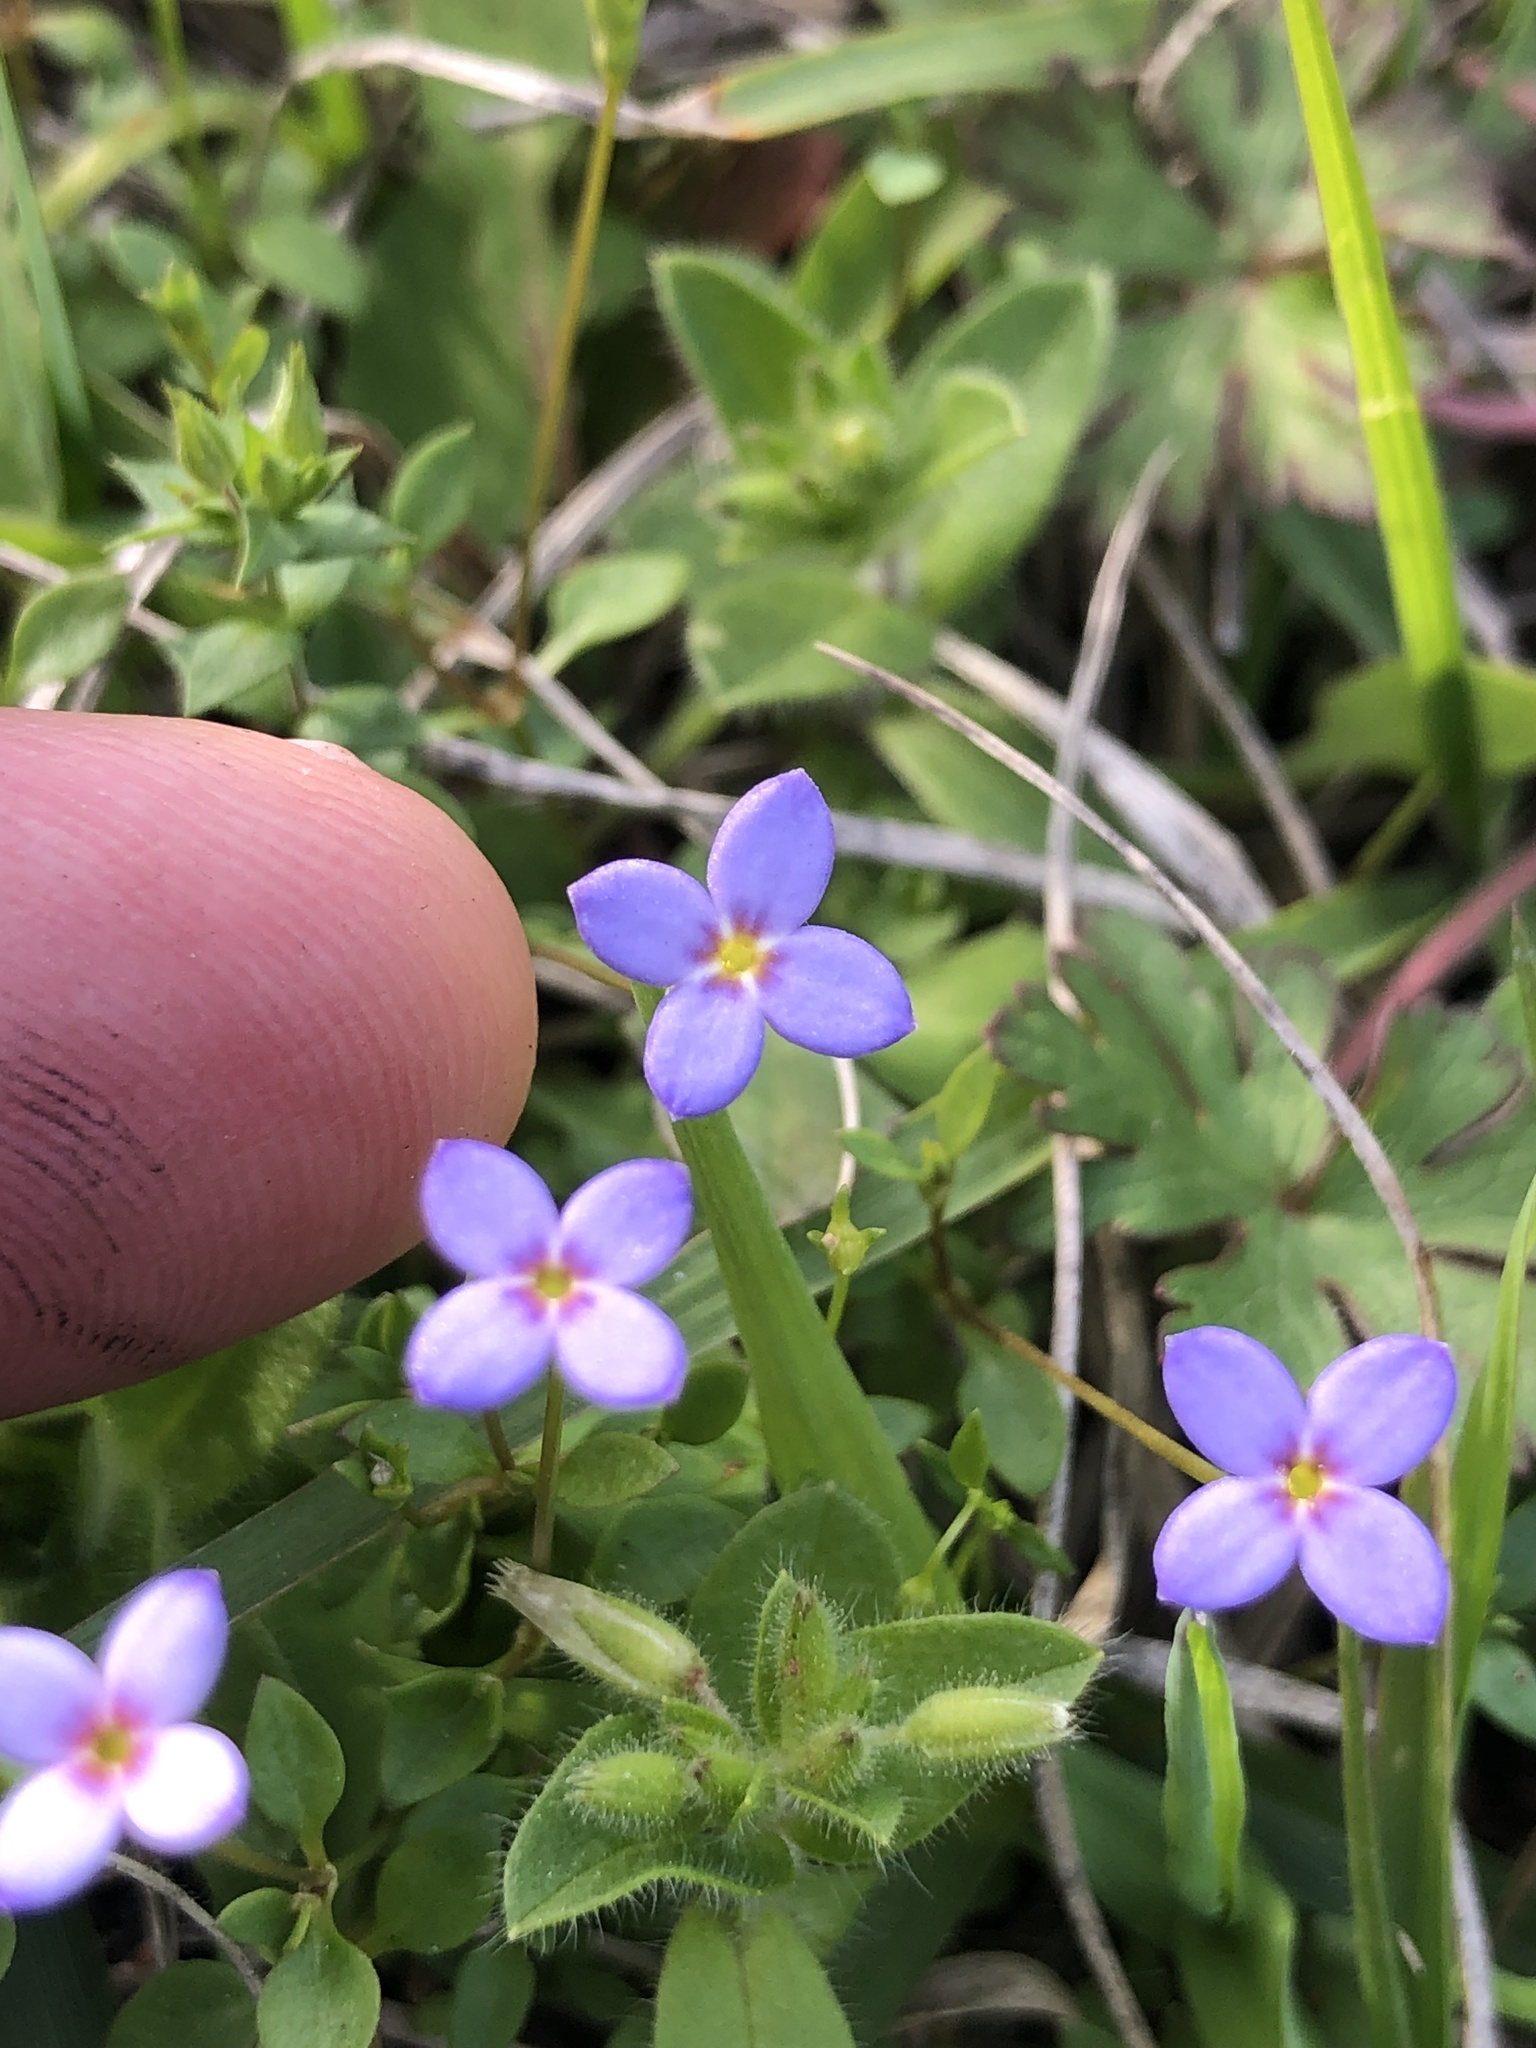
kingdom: Plantae
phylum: Tracheophyta
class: Magnoliopsida
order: Gentianales
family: Rubiaceae
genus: Houstonia
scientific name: Houstonia pusilla
